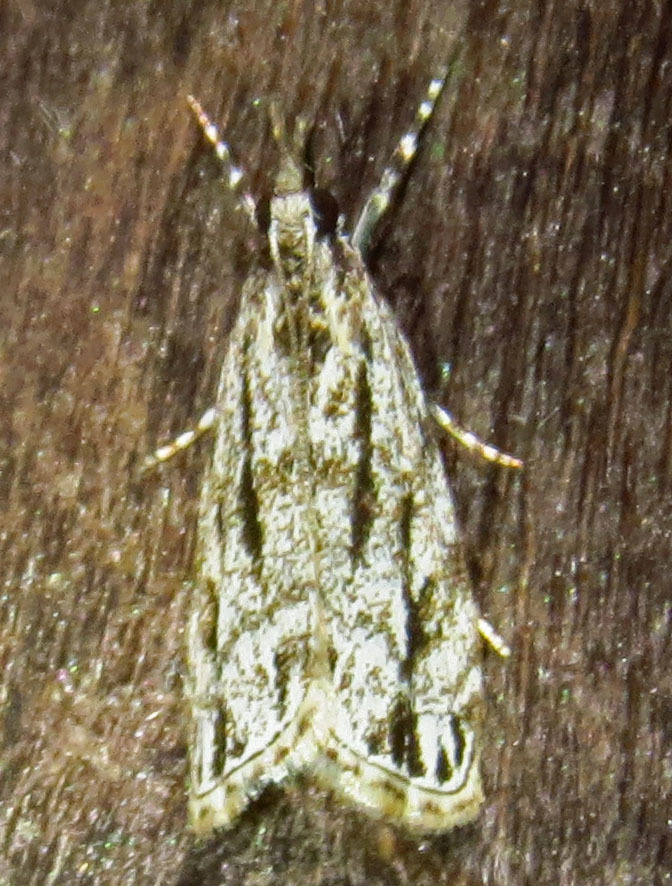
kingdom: Animalia
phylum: Arthropoda
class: Insecta
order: Lepidoptera
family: Crambidae
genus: Eudonia
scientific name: Eudonia strigalis
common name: Striped eudonia moth
